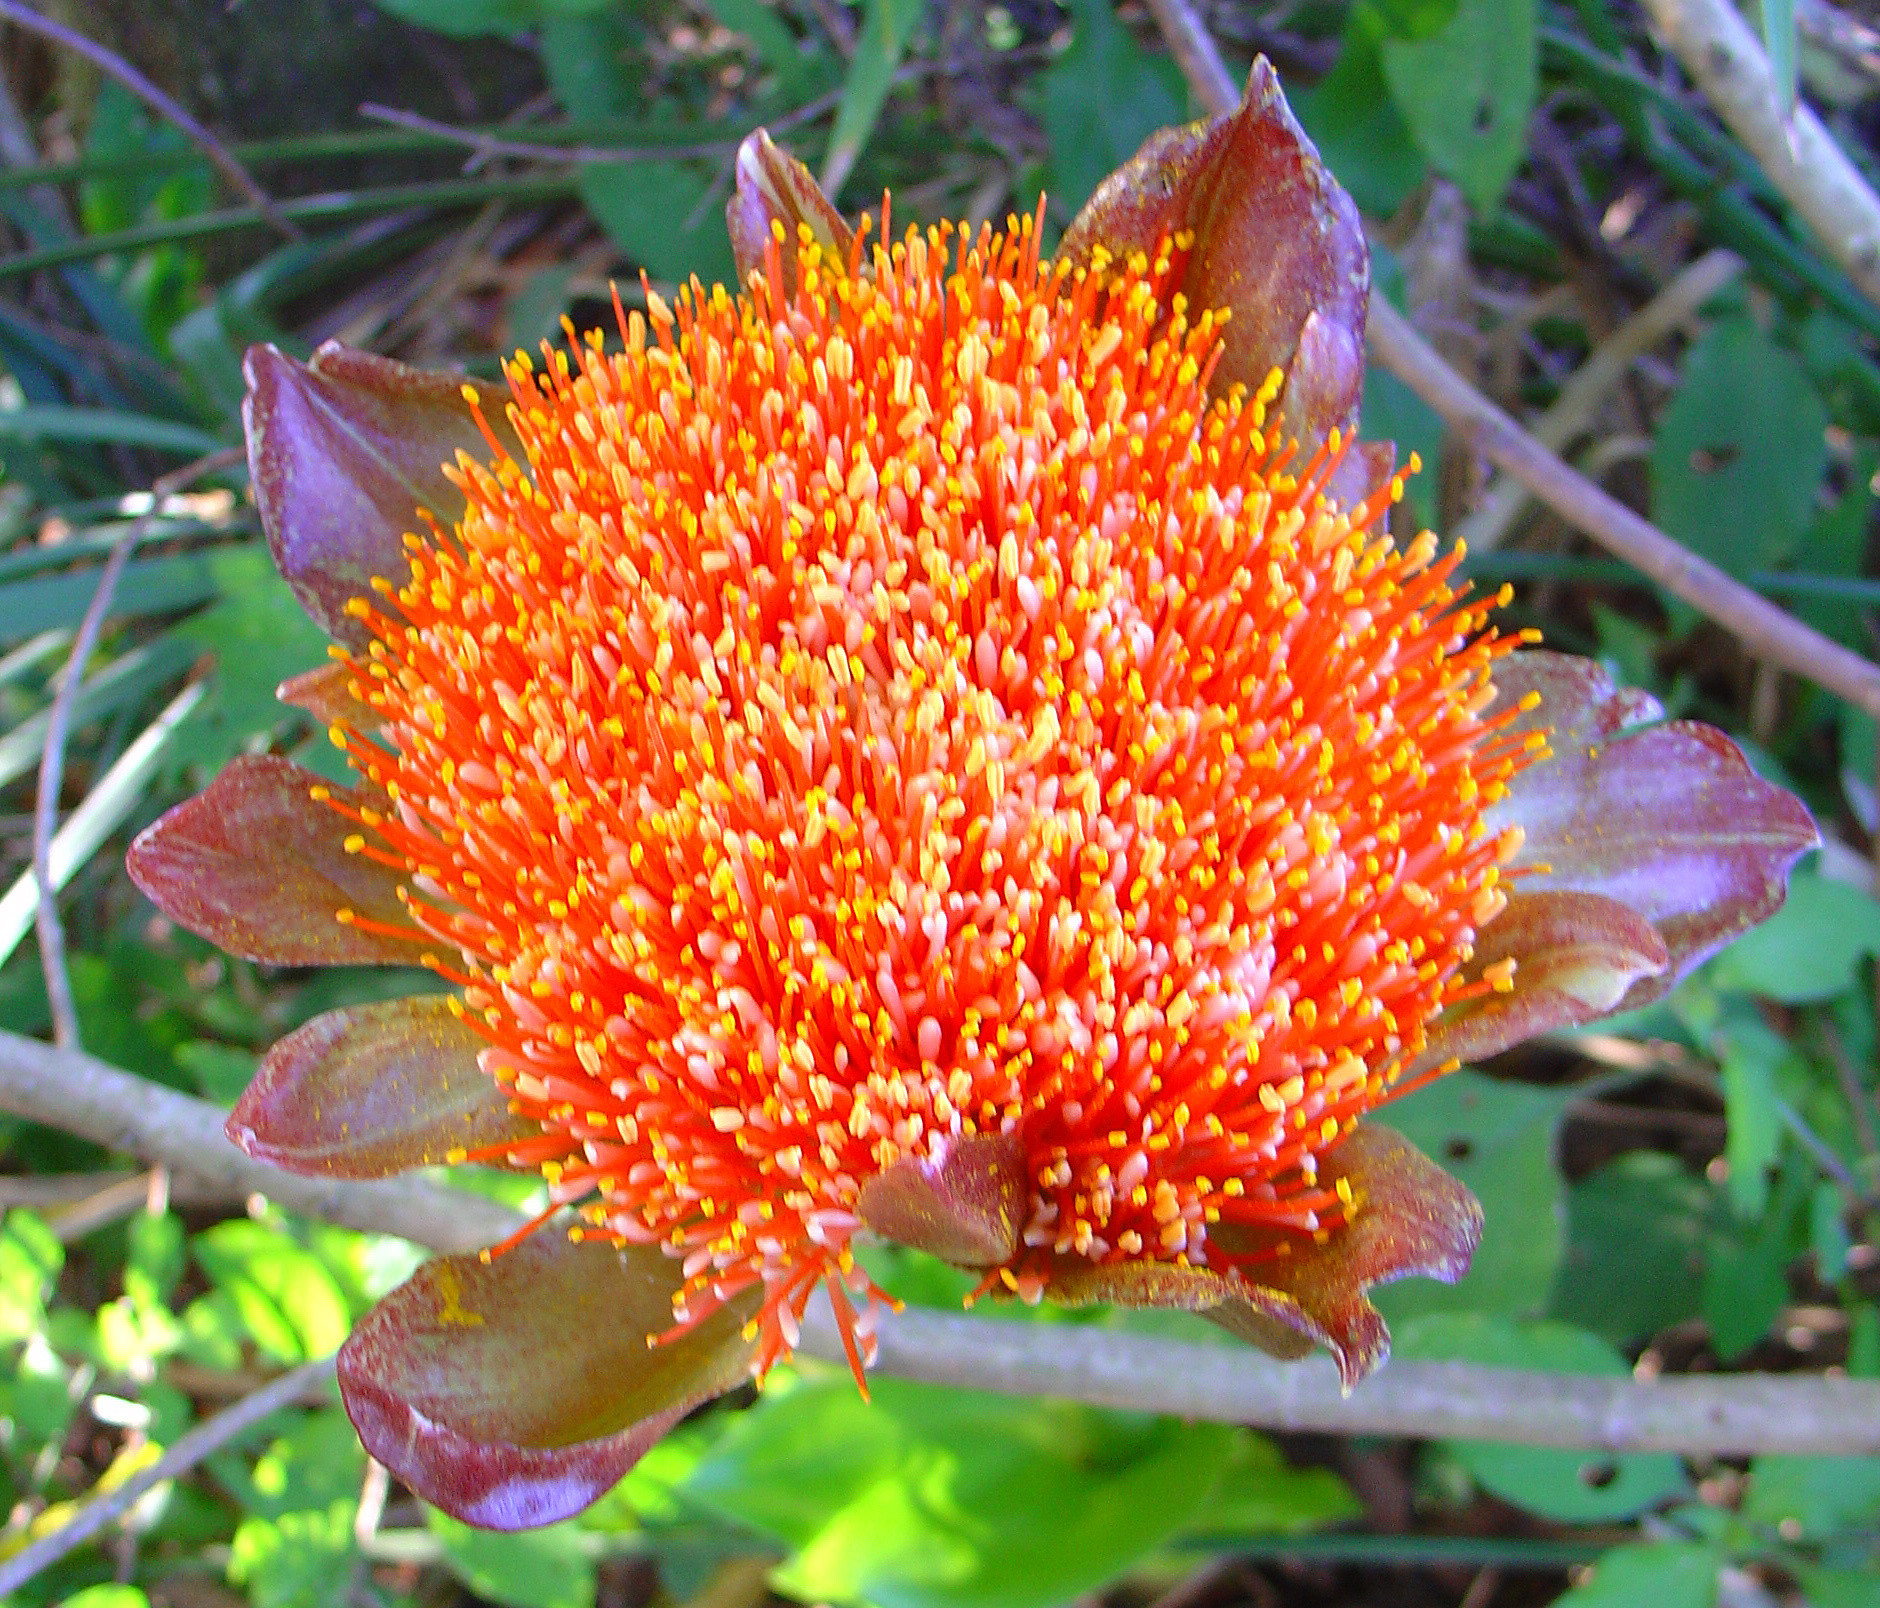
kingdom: Plantae
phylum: Tracheophyta
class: Liliopsida
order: Asparagales
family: Amaryllidaceae
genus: Scadoxus
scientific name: Scadoxus puniceus
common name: Royal-paintbrush
